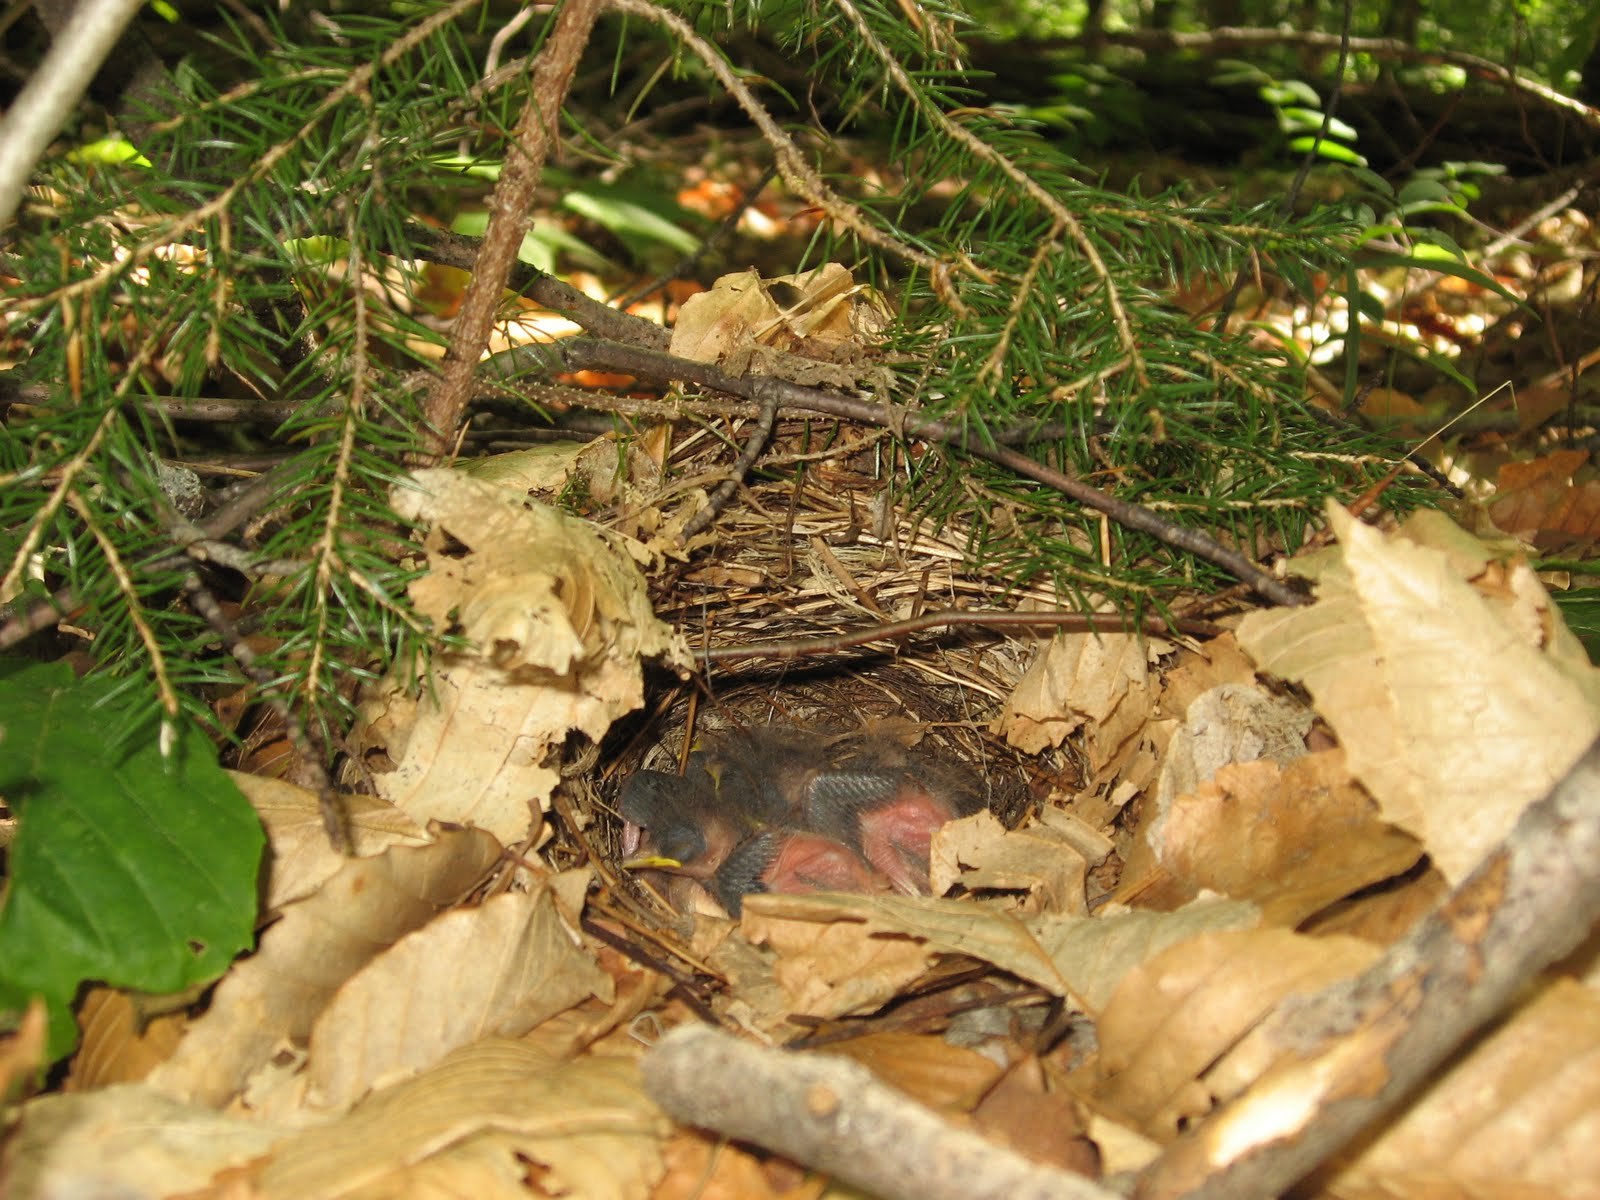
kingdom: Animalia
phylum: Chordata
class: Aves
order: Passeriformes
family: Parulidae
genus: Seiurus
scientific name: Seiurus aurocapilla
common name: Ovenbird
